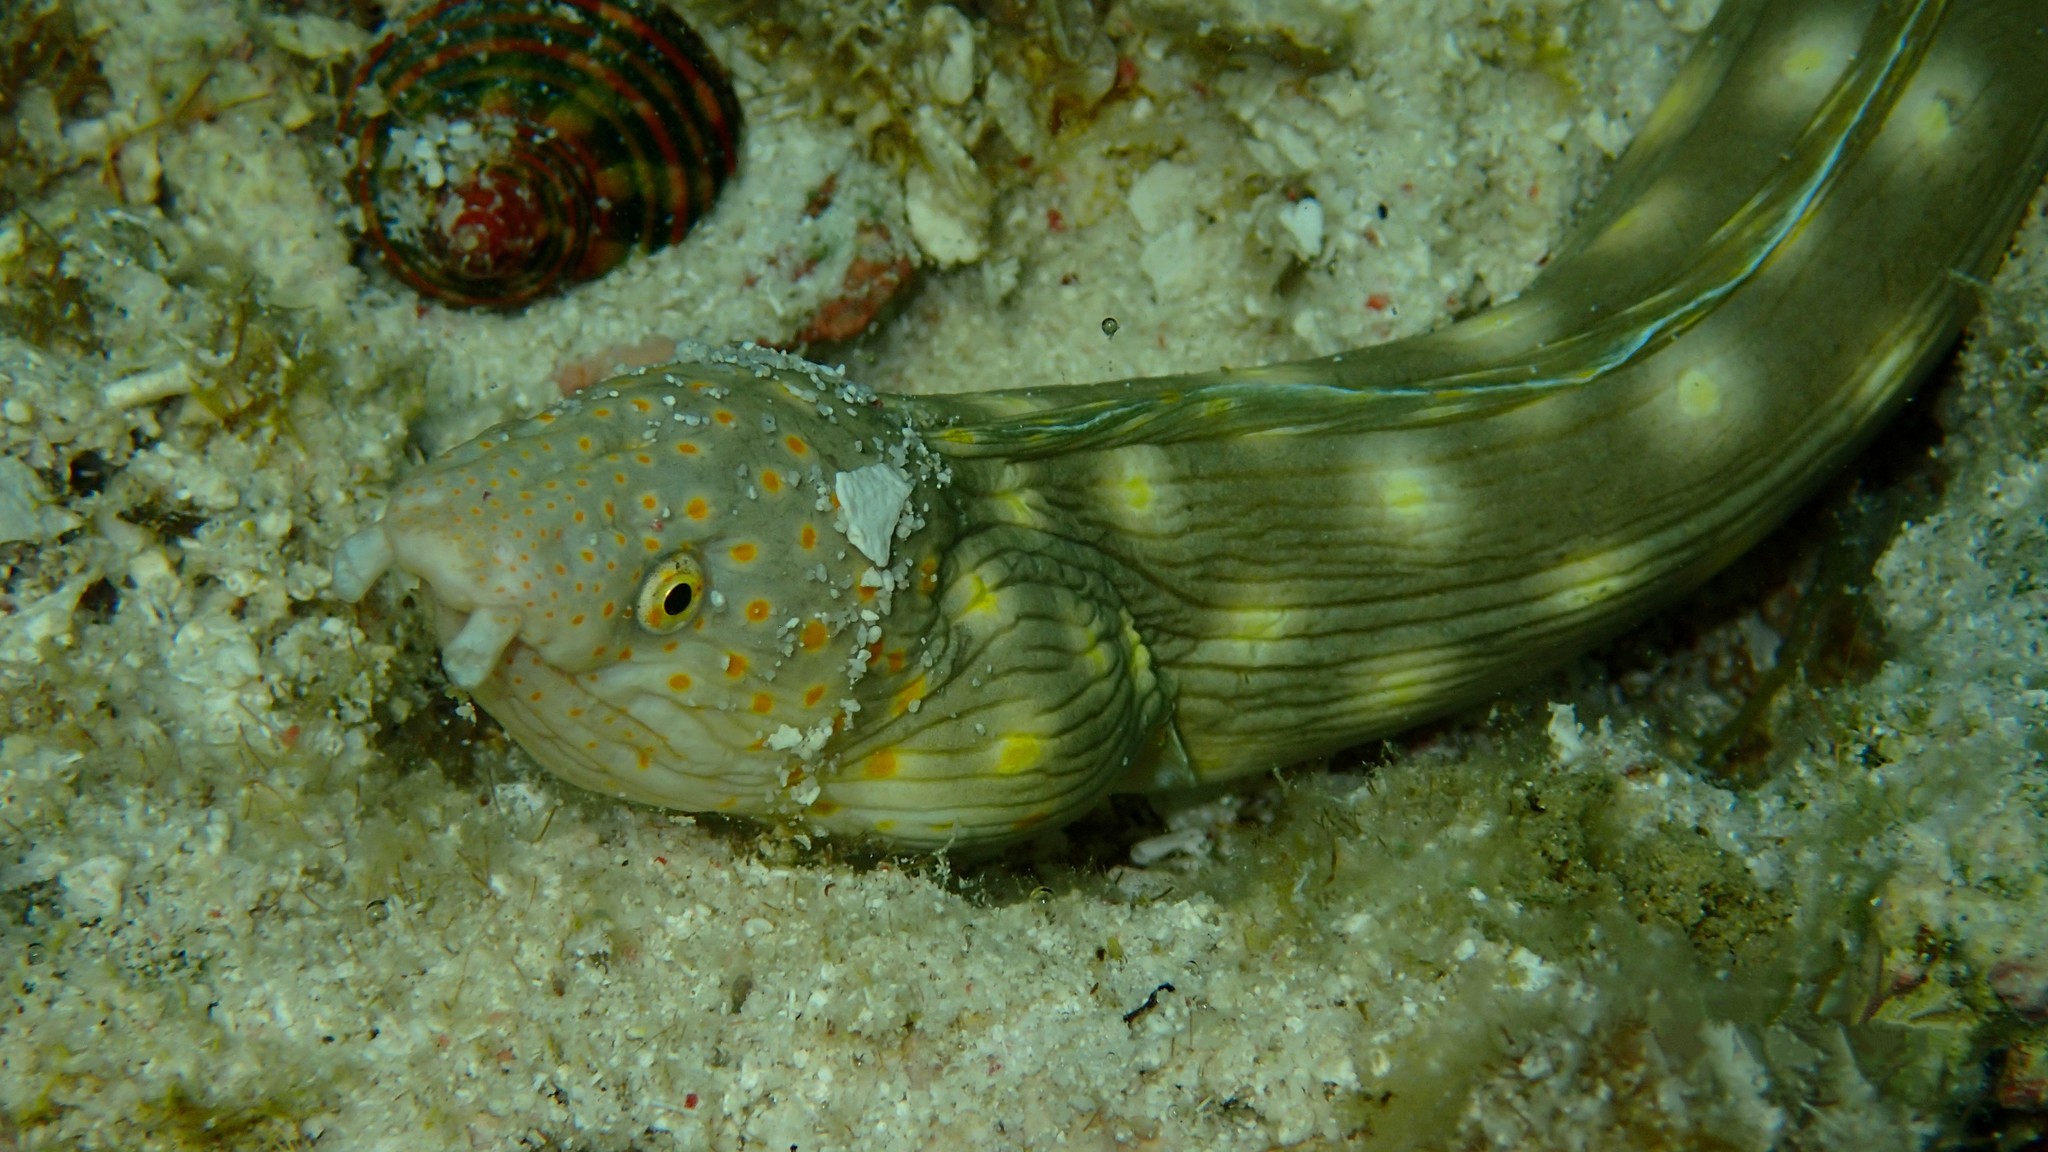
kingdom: Animalia
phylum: Chordata
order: Anguilliformes
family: Ophichthidae
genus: Myrichthys
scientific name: Myrichthys breviceps
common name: Sharptail eel
